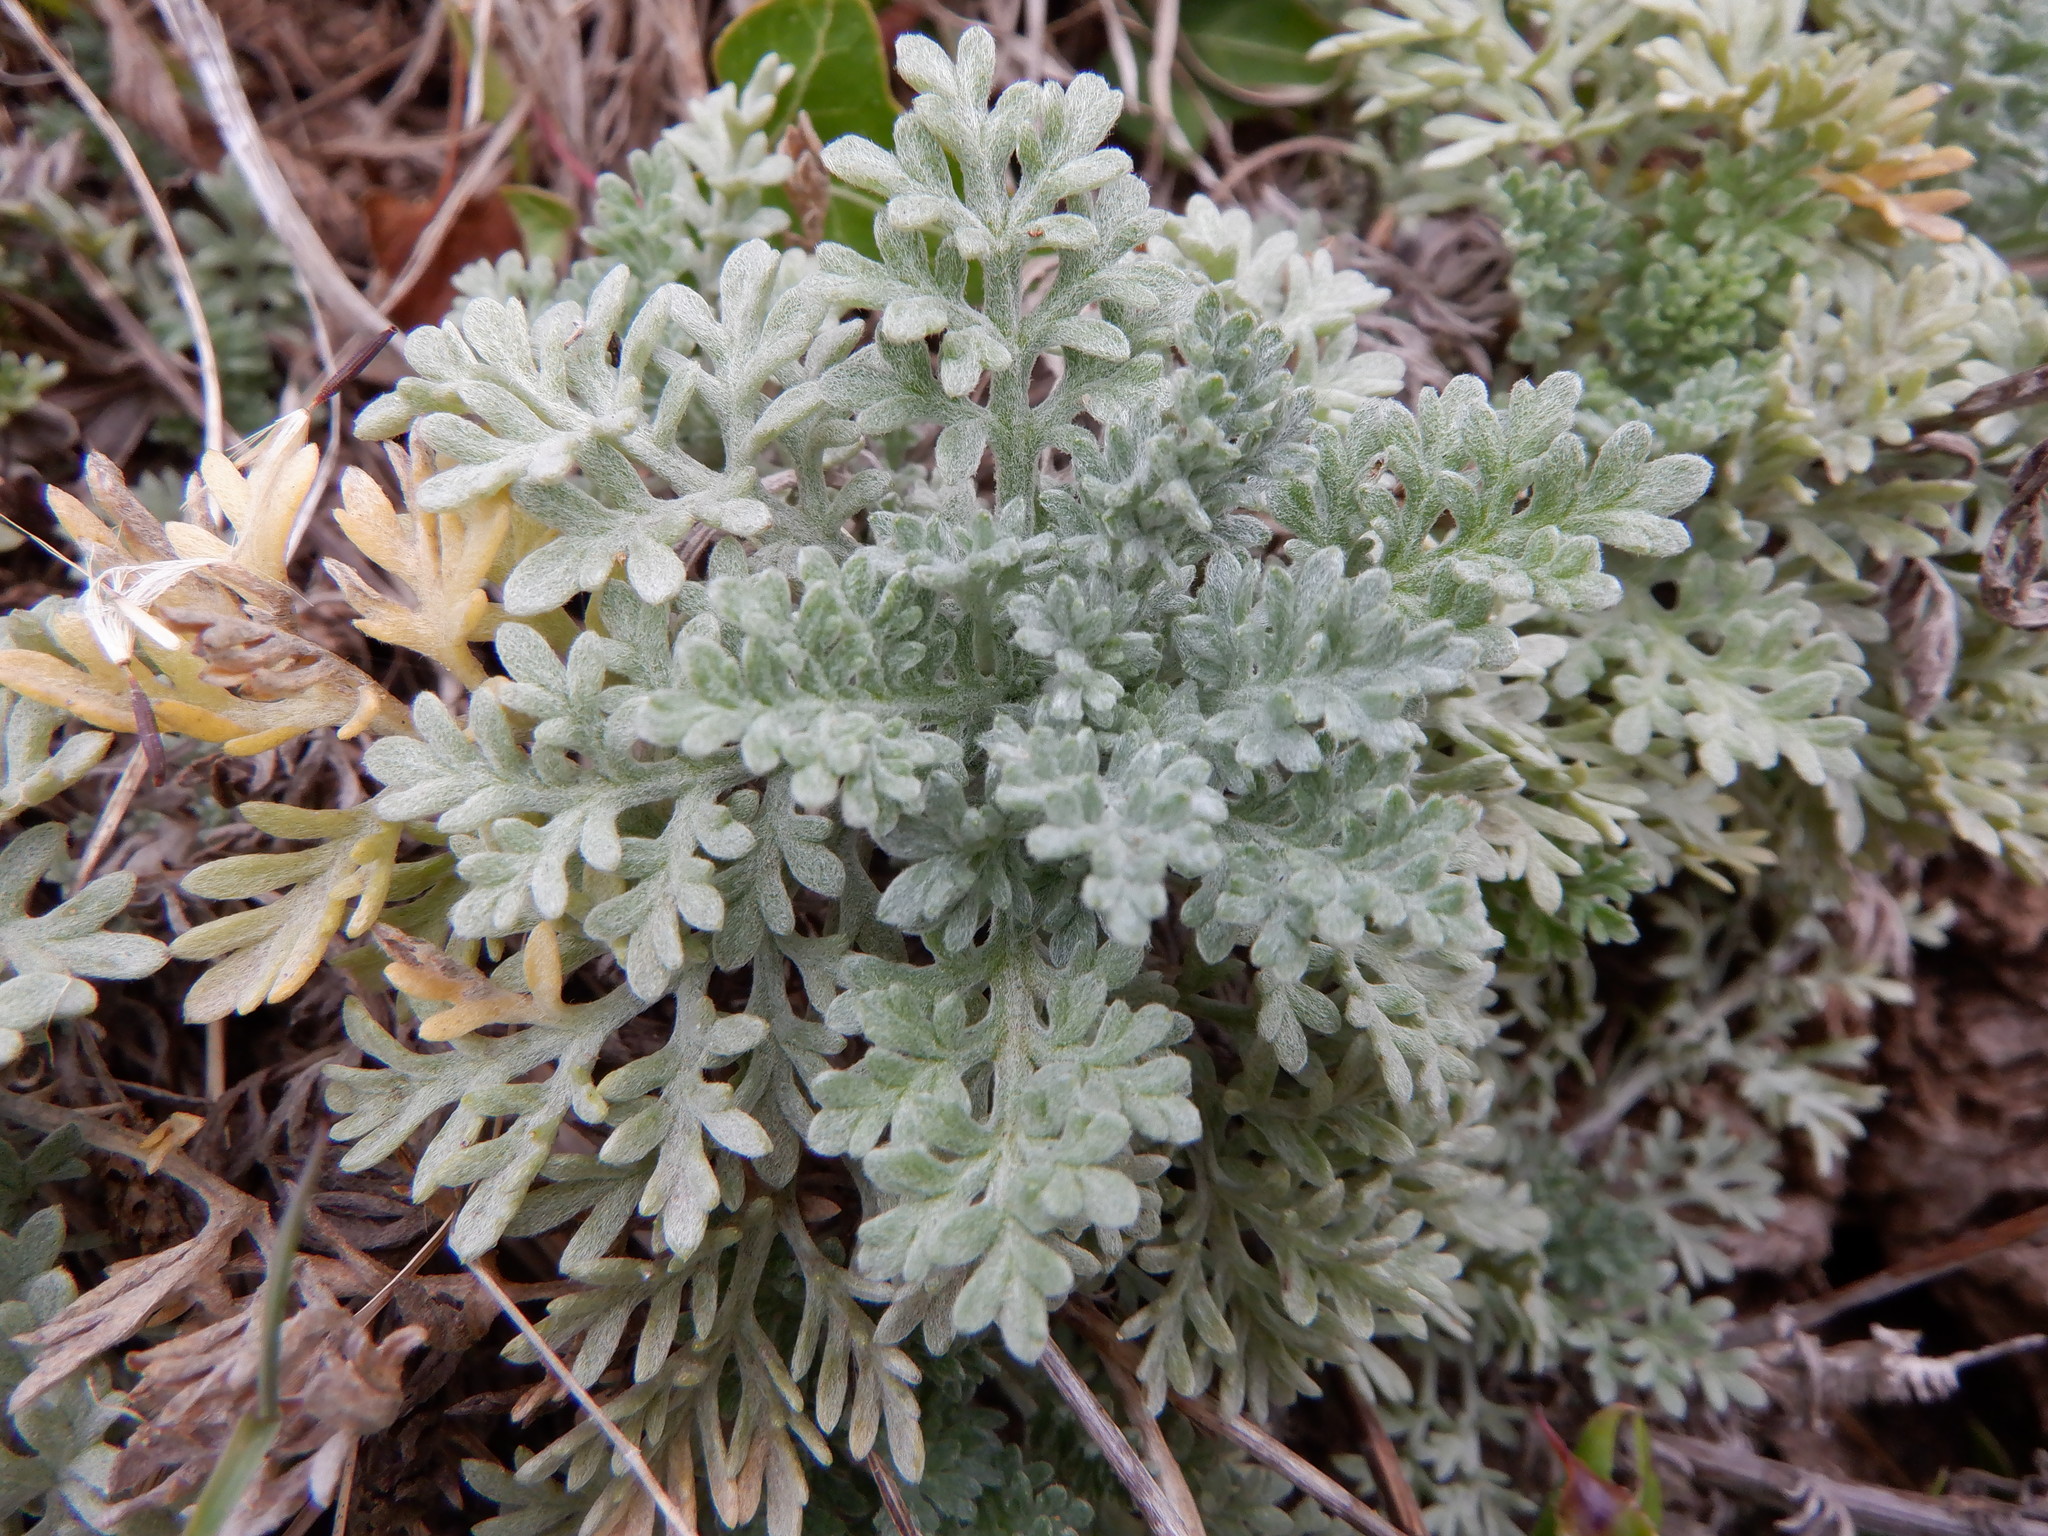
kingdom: Plantae
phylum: Tracheophyta
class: Magnoliopsida
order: Asterales
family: Asteraceae
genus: Anthemis
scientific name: Anthemis cupaniana
